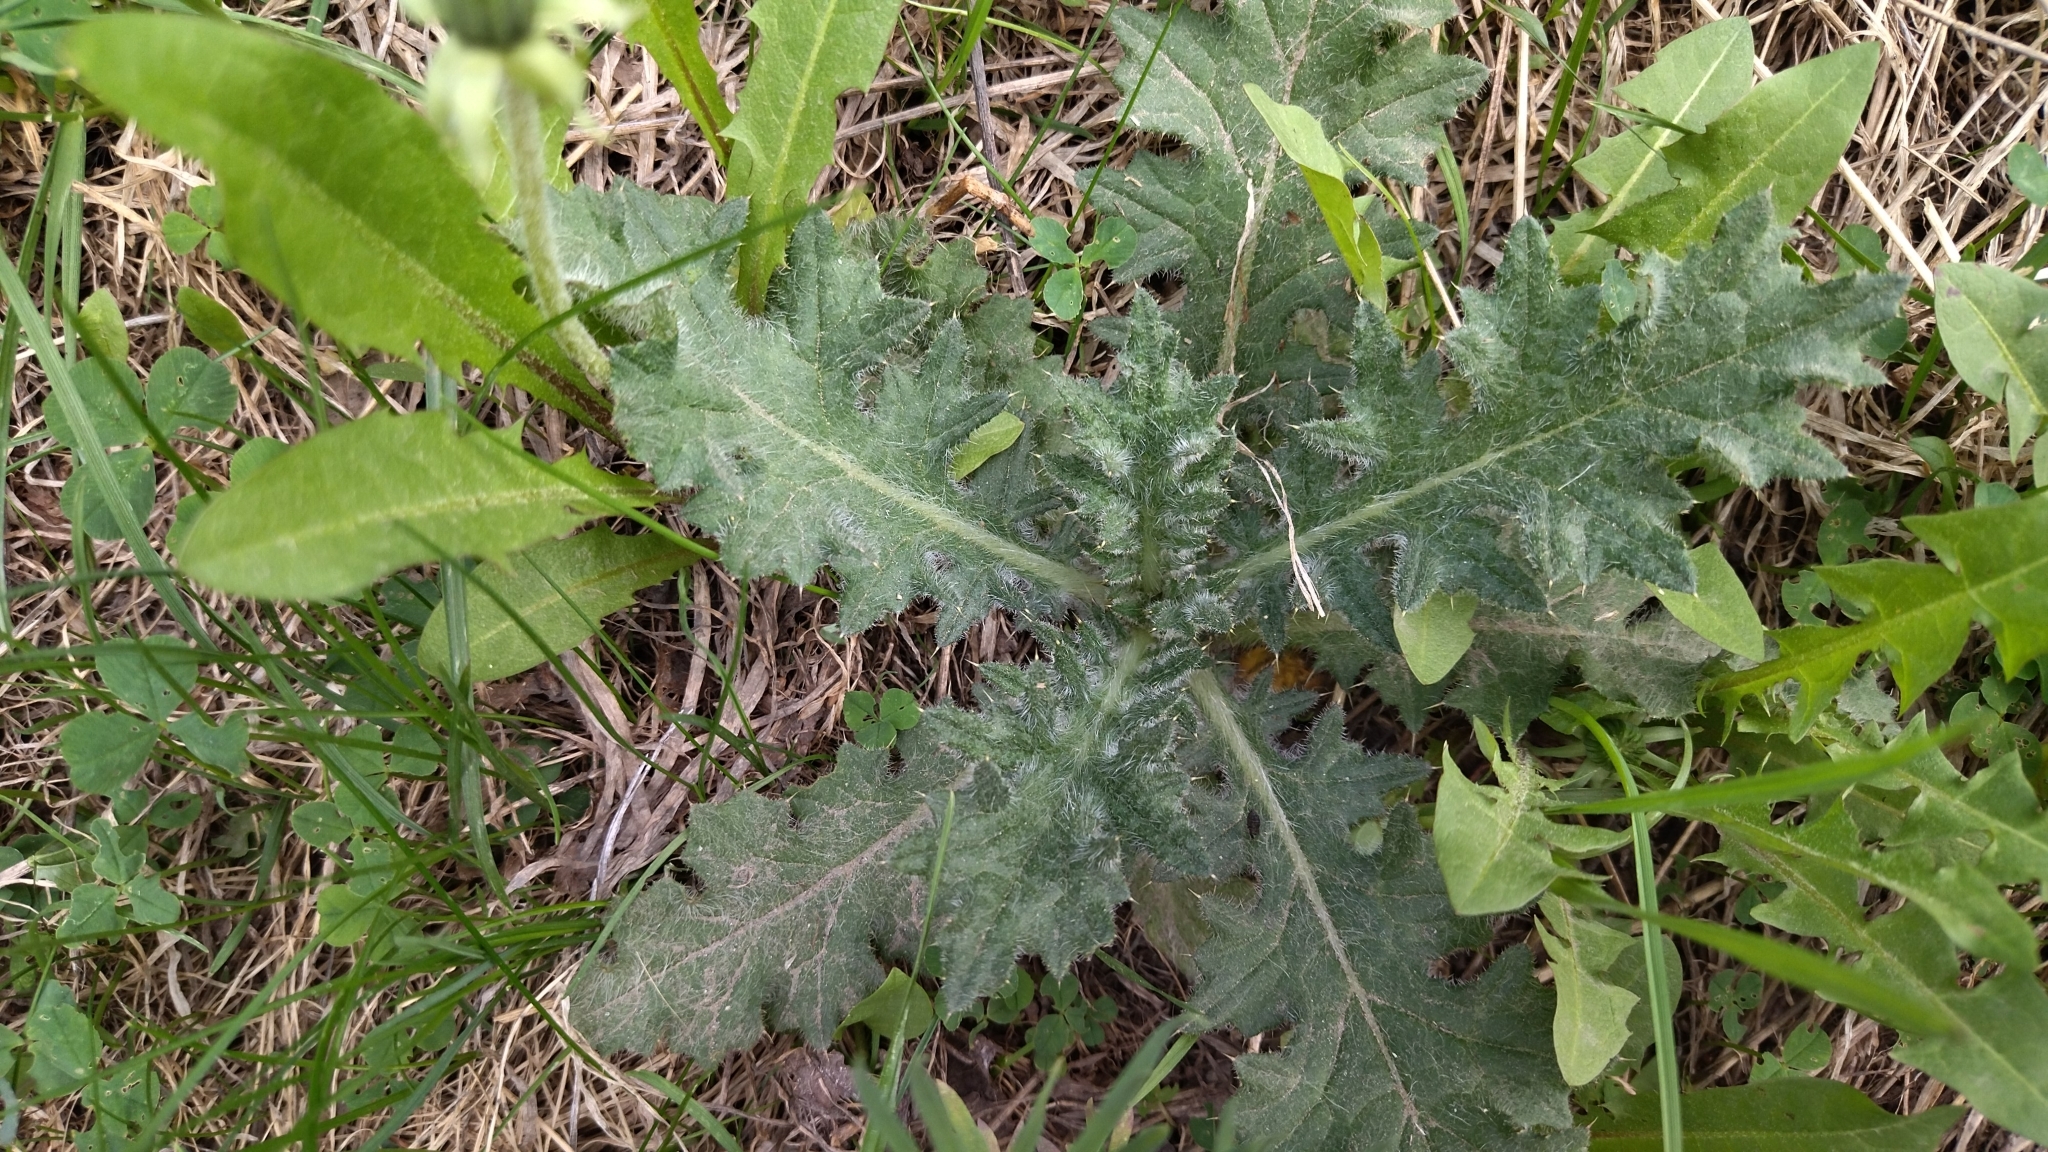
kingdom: Plantae
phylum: Tracheophyta
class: Magnoliopsida
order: Asterales
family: Asteraceae
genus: Cirsium
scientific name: Cirsium vulgare
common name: Bull thistle
